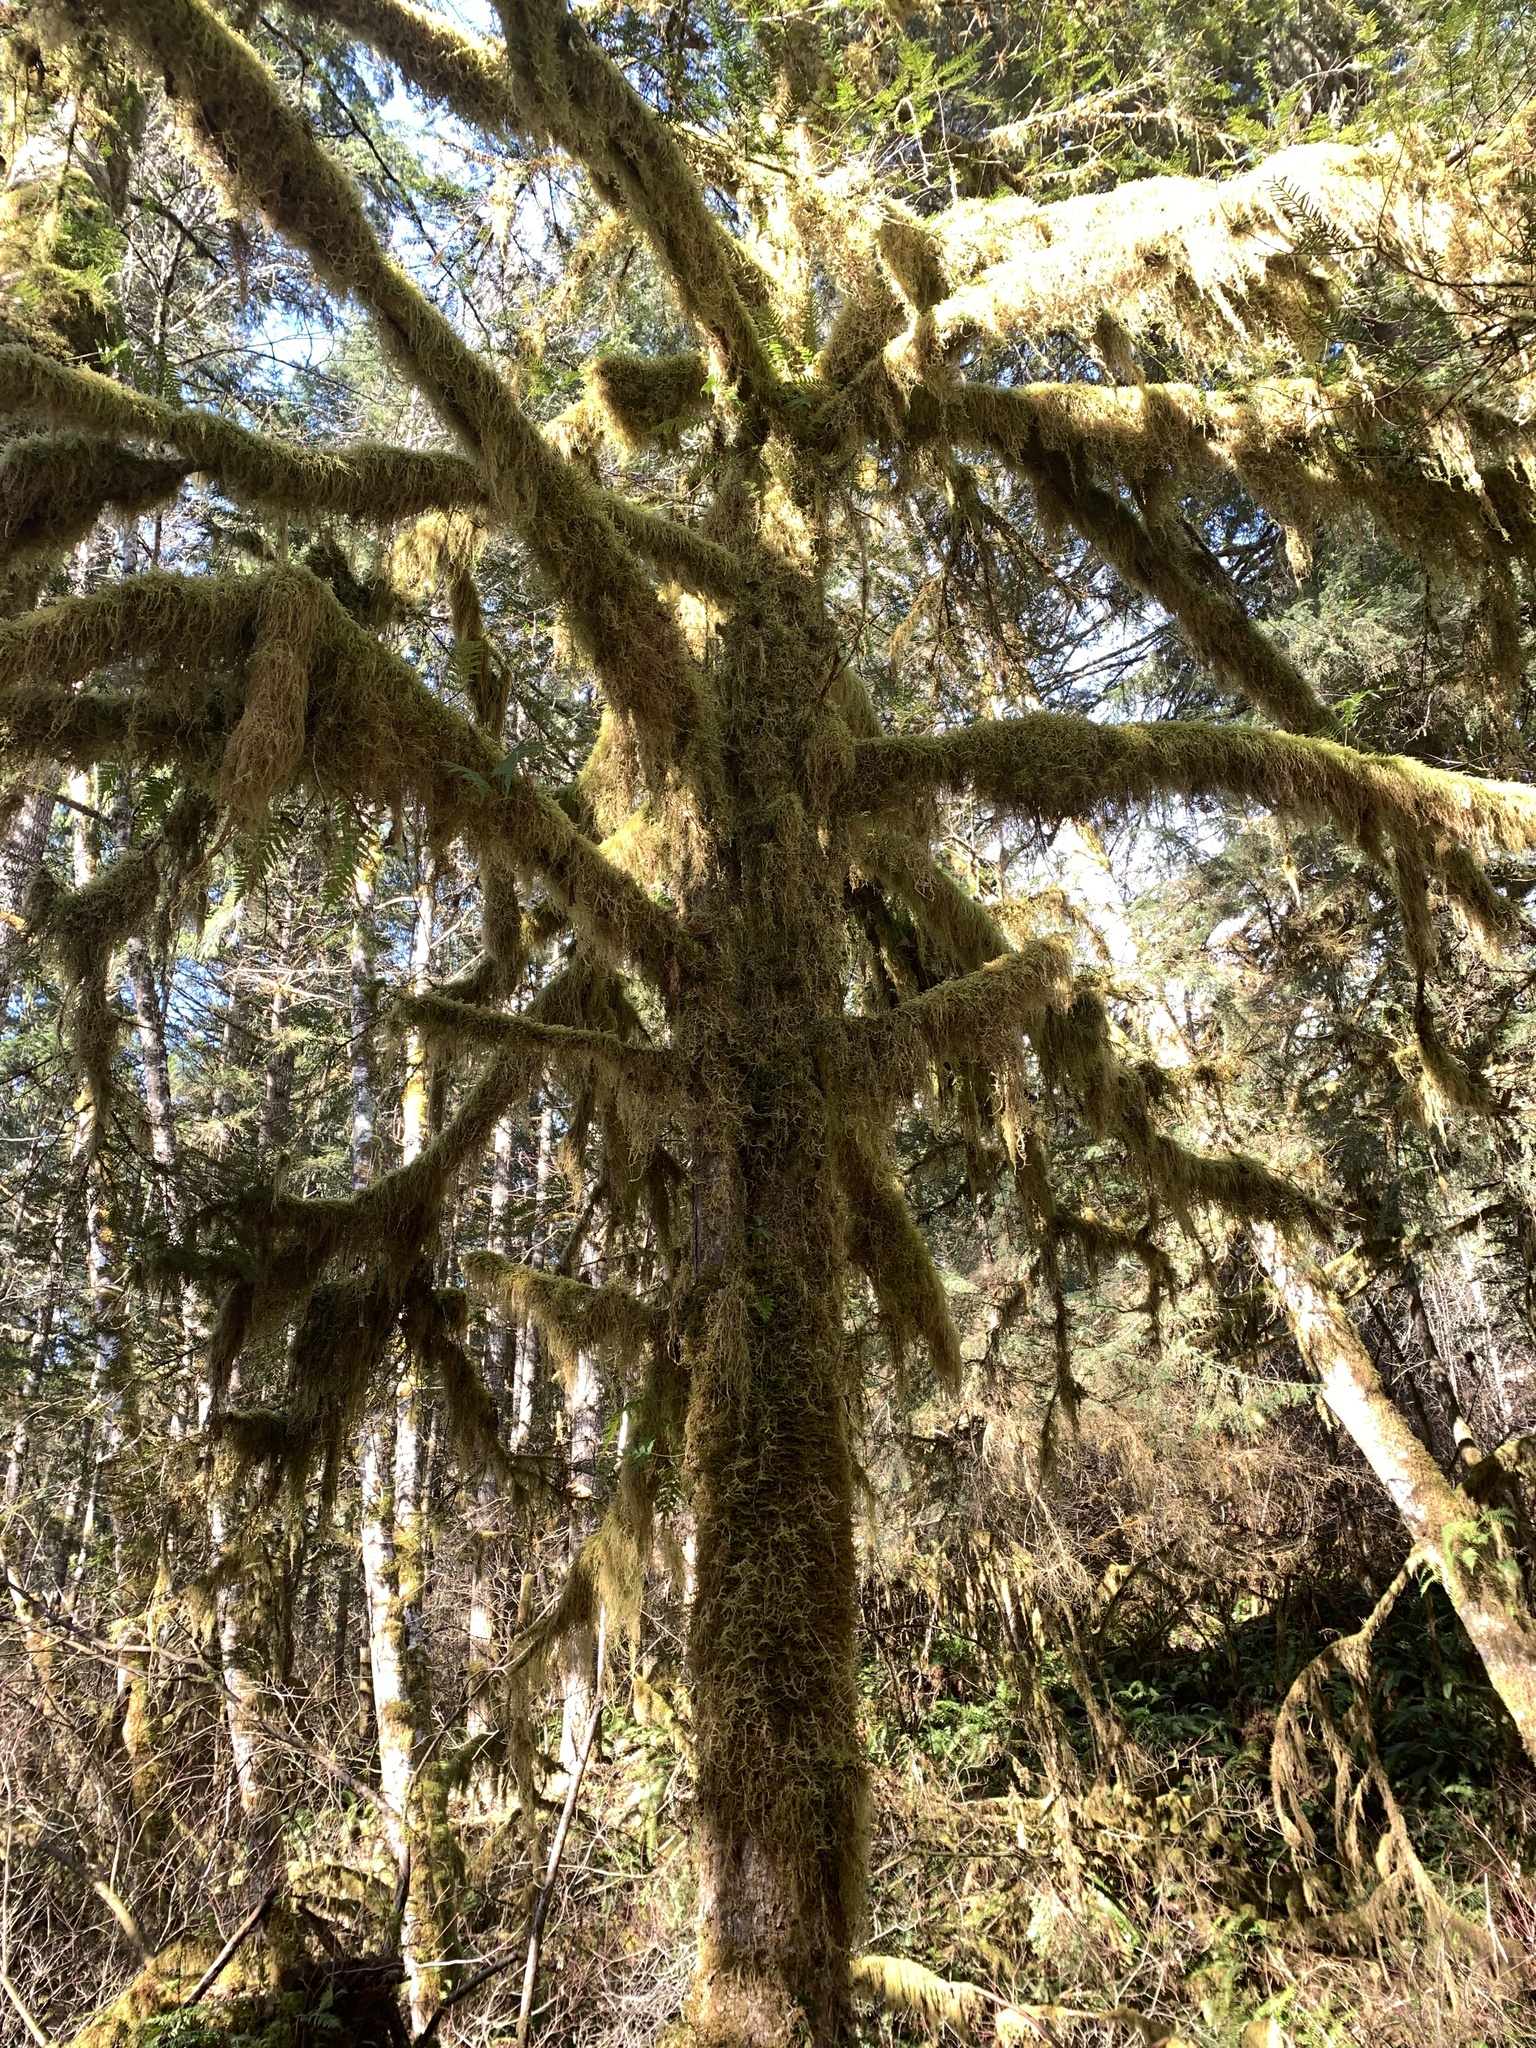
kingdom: Plantae
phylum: Tracheophyta
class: Pinopsida
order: Pinales
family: Taxaceae
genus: Taxus
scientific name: Taxus brevifolia
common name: Pacific yew
